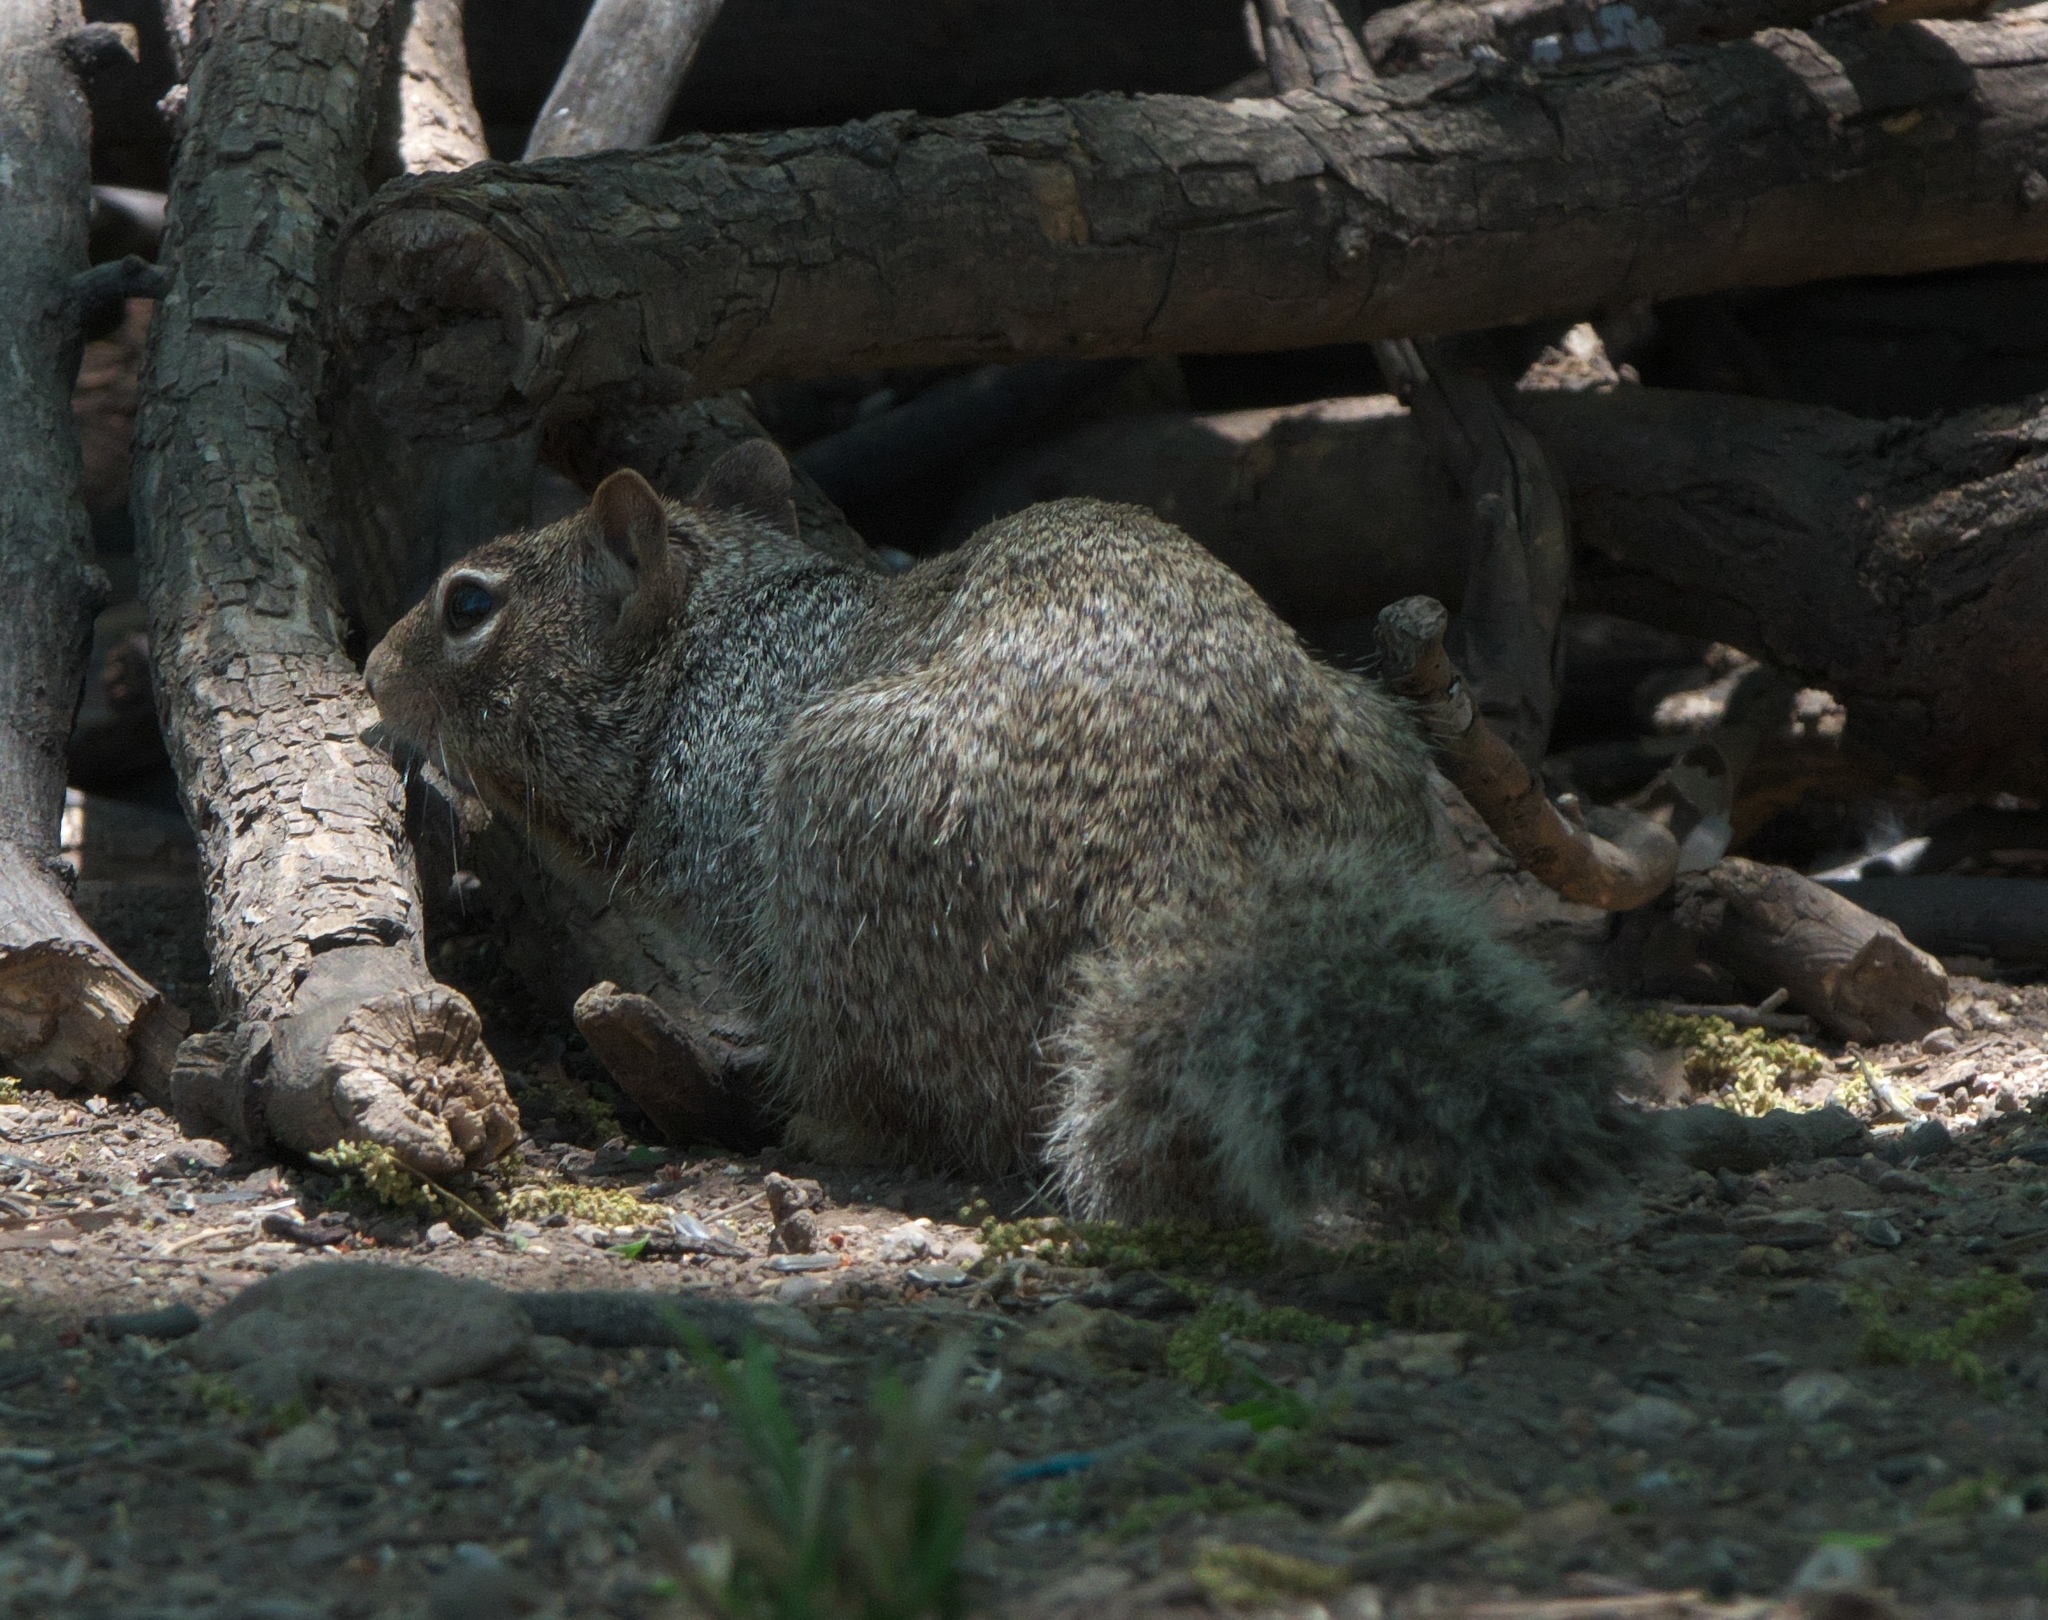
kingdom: Animalia
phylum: Chordata
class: Mammalia
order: Rodentia
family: Sciuridae
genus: Otospermophilus
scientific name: Otospermophilus variegatus
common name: Rock squirrel
